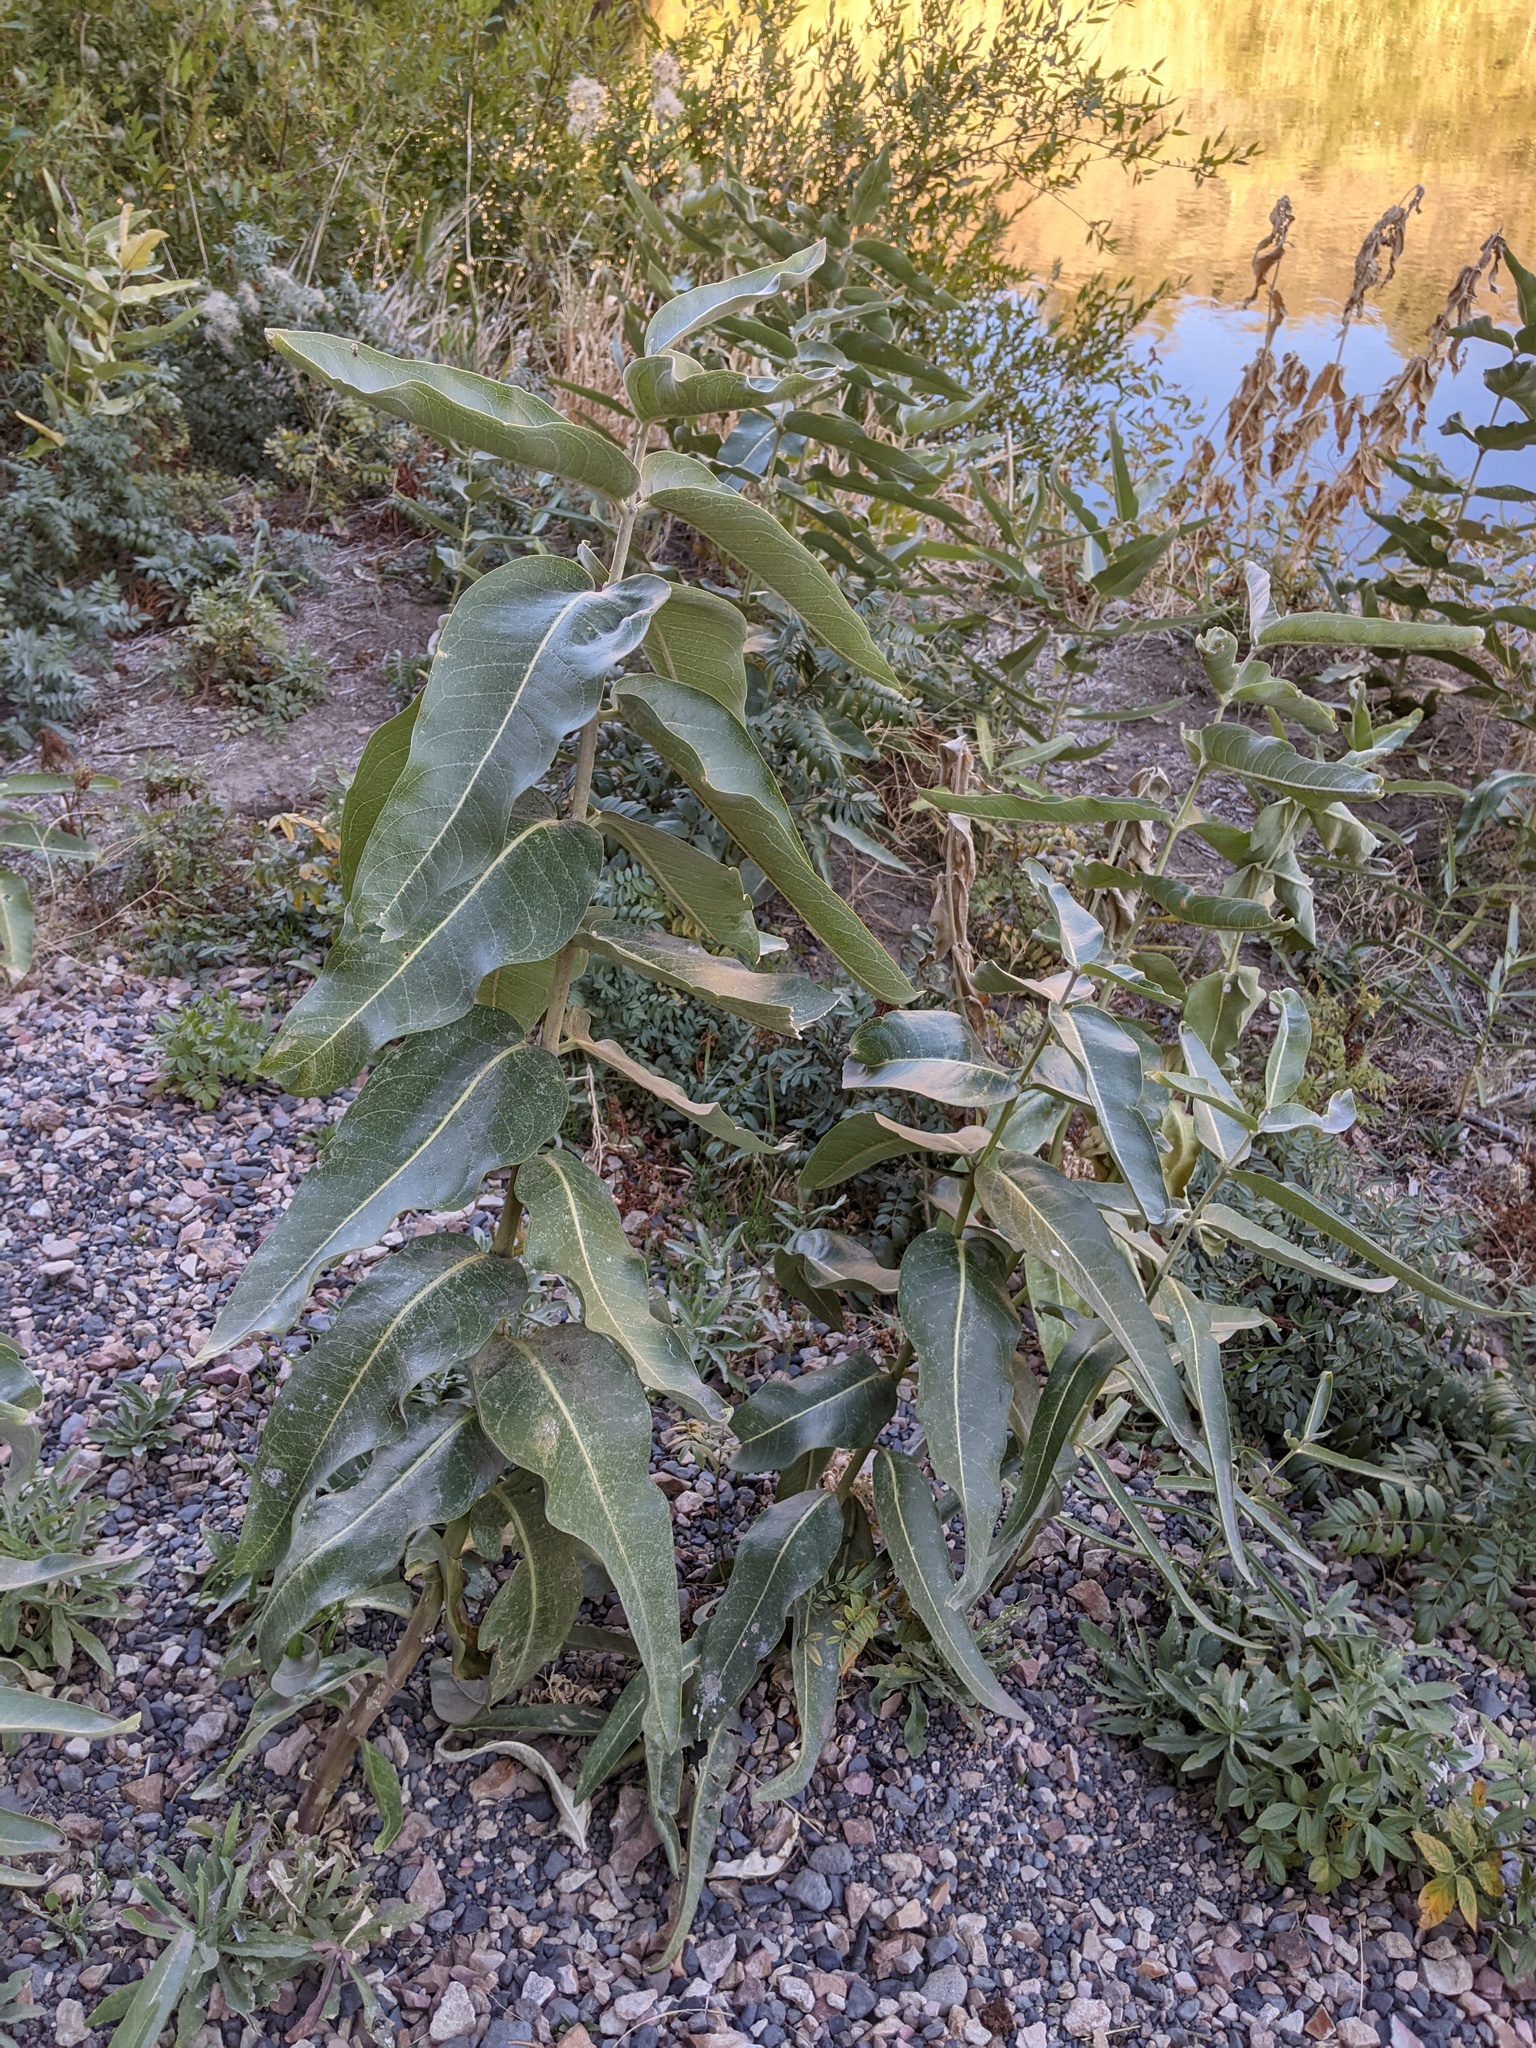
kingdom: Plantae
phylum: Tracheophyta
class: Magnoliopsida
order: Gentianales
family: Apocynaceae
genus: Asclepias
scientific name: Asclepias speciosa
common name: Showy milkweed
